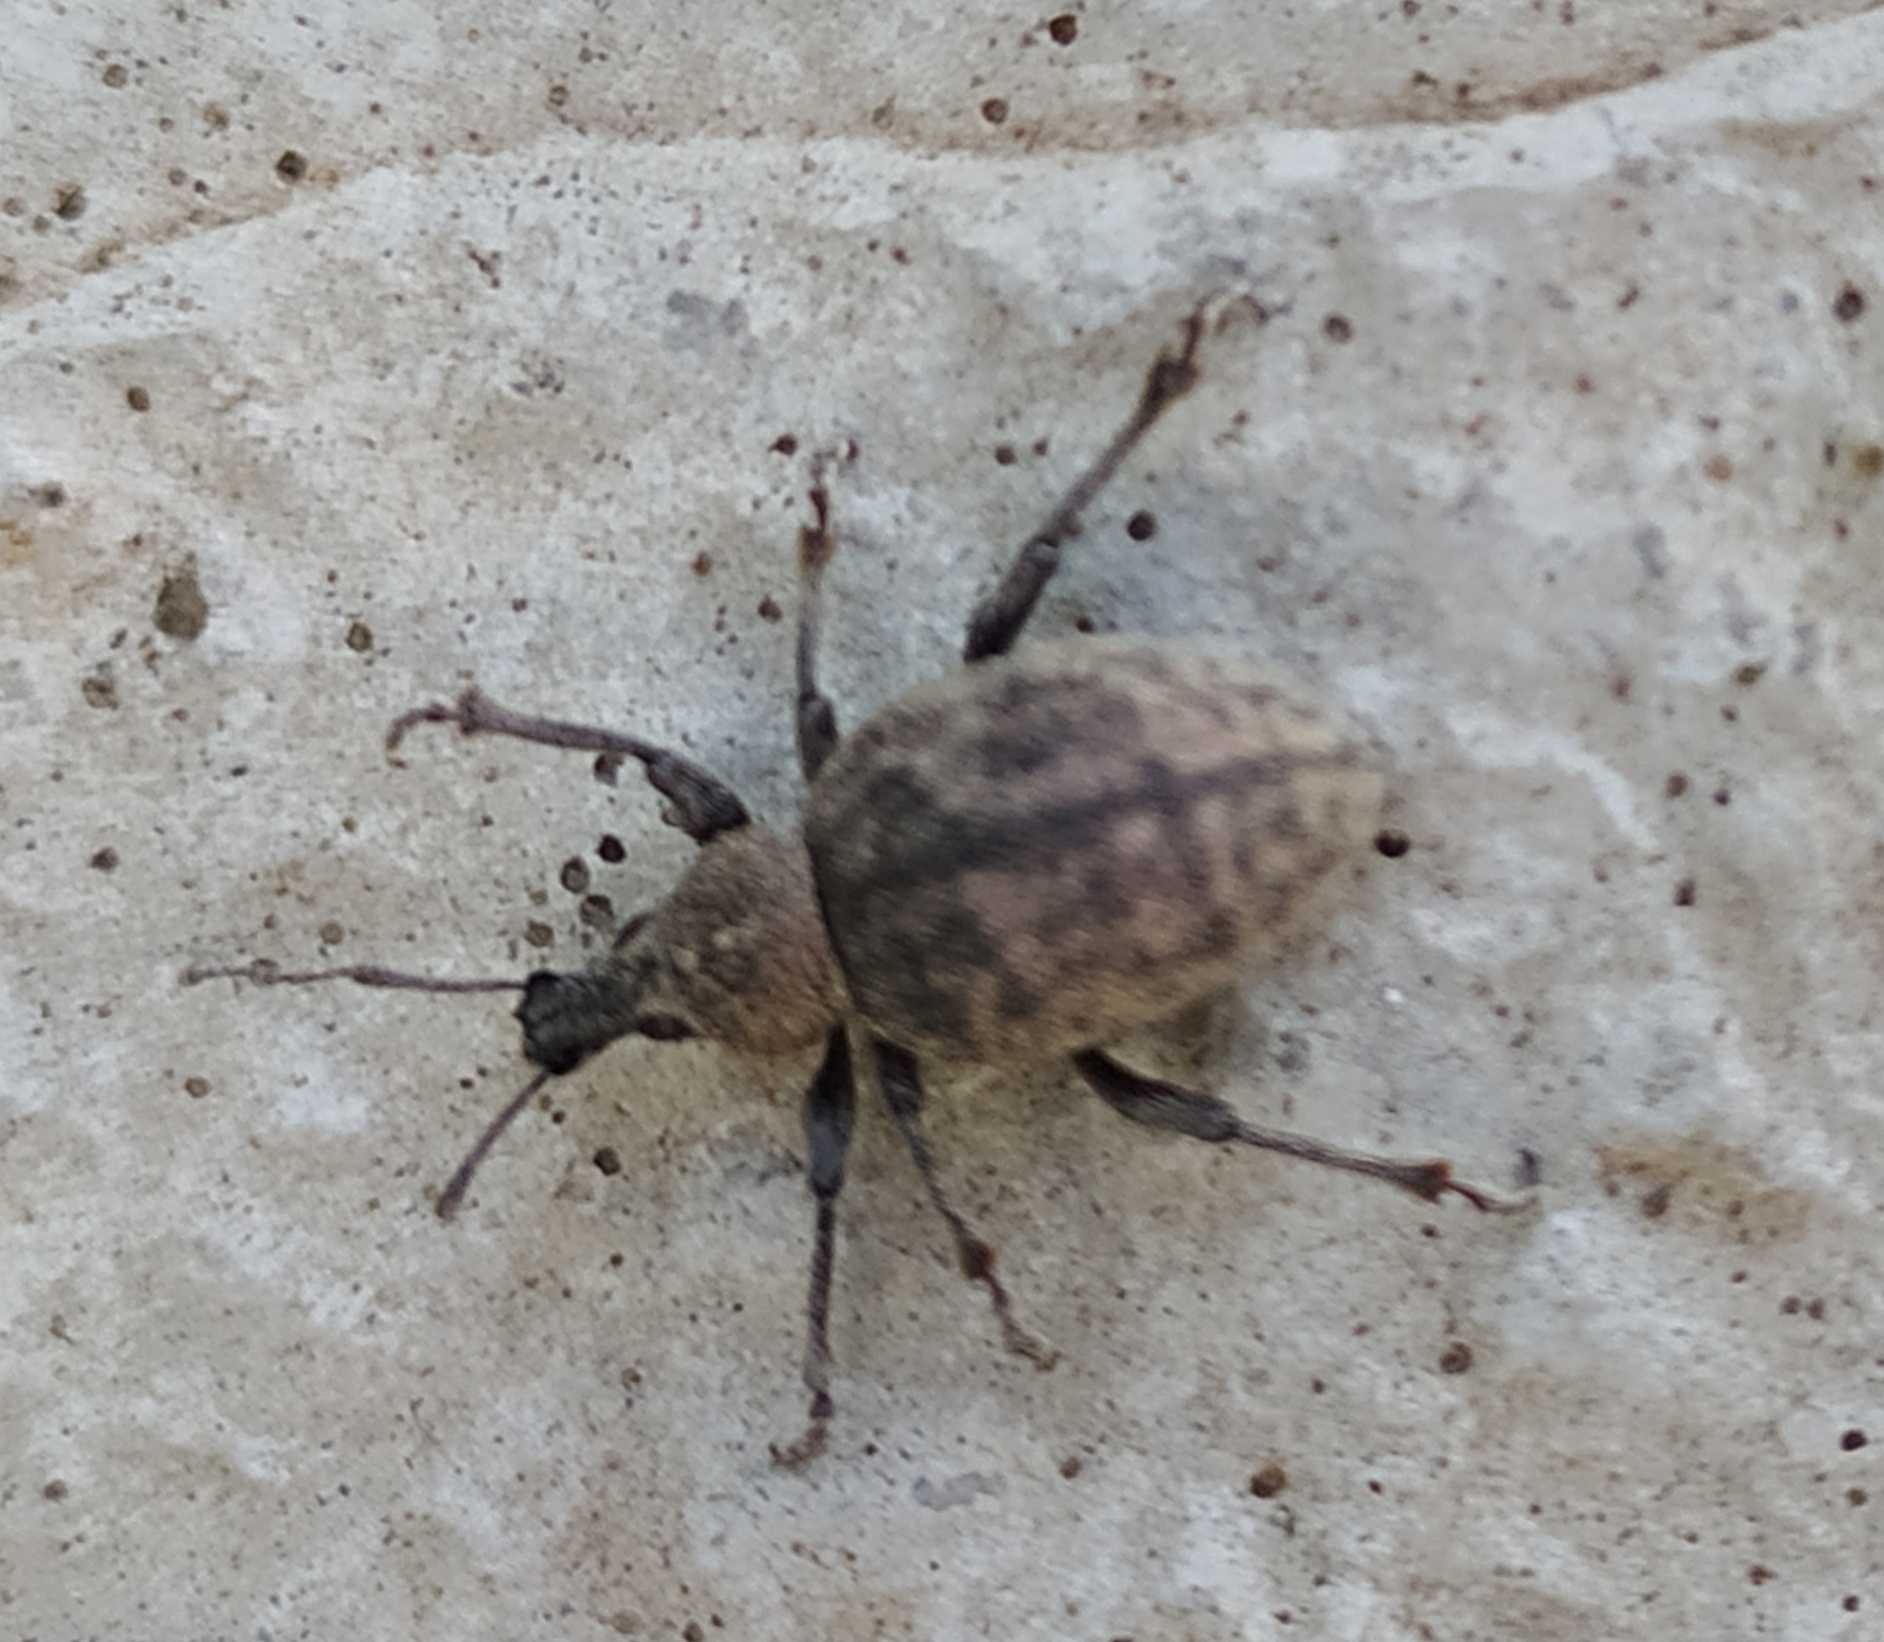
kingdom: Animalia
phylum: Arthropoda
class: Insecta
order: Coleoptera
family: Curculionidae
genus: Otiorhynchus
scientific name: Otiorhynchus ligustici
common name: Weevil
